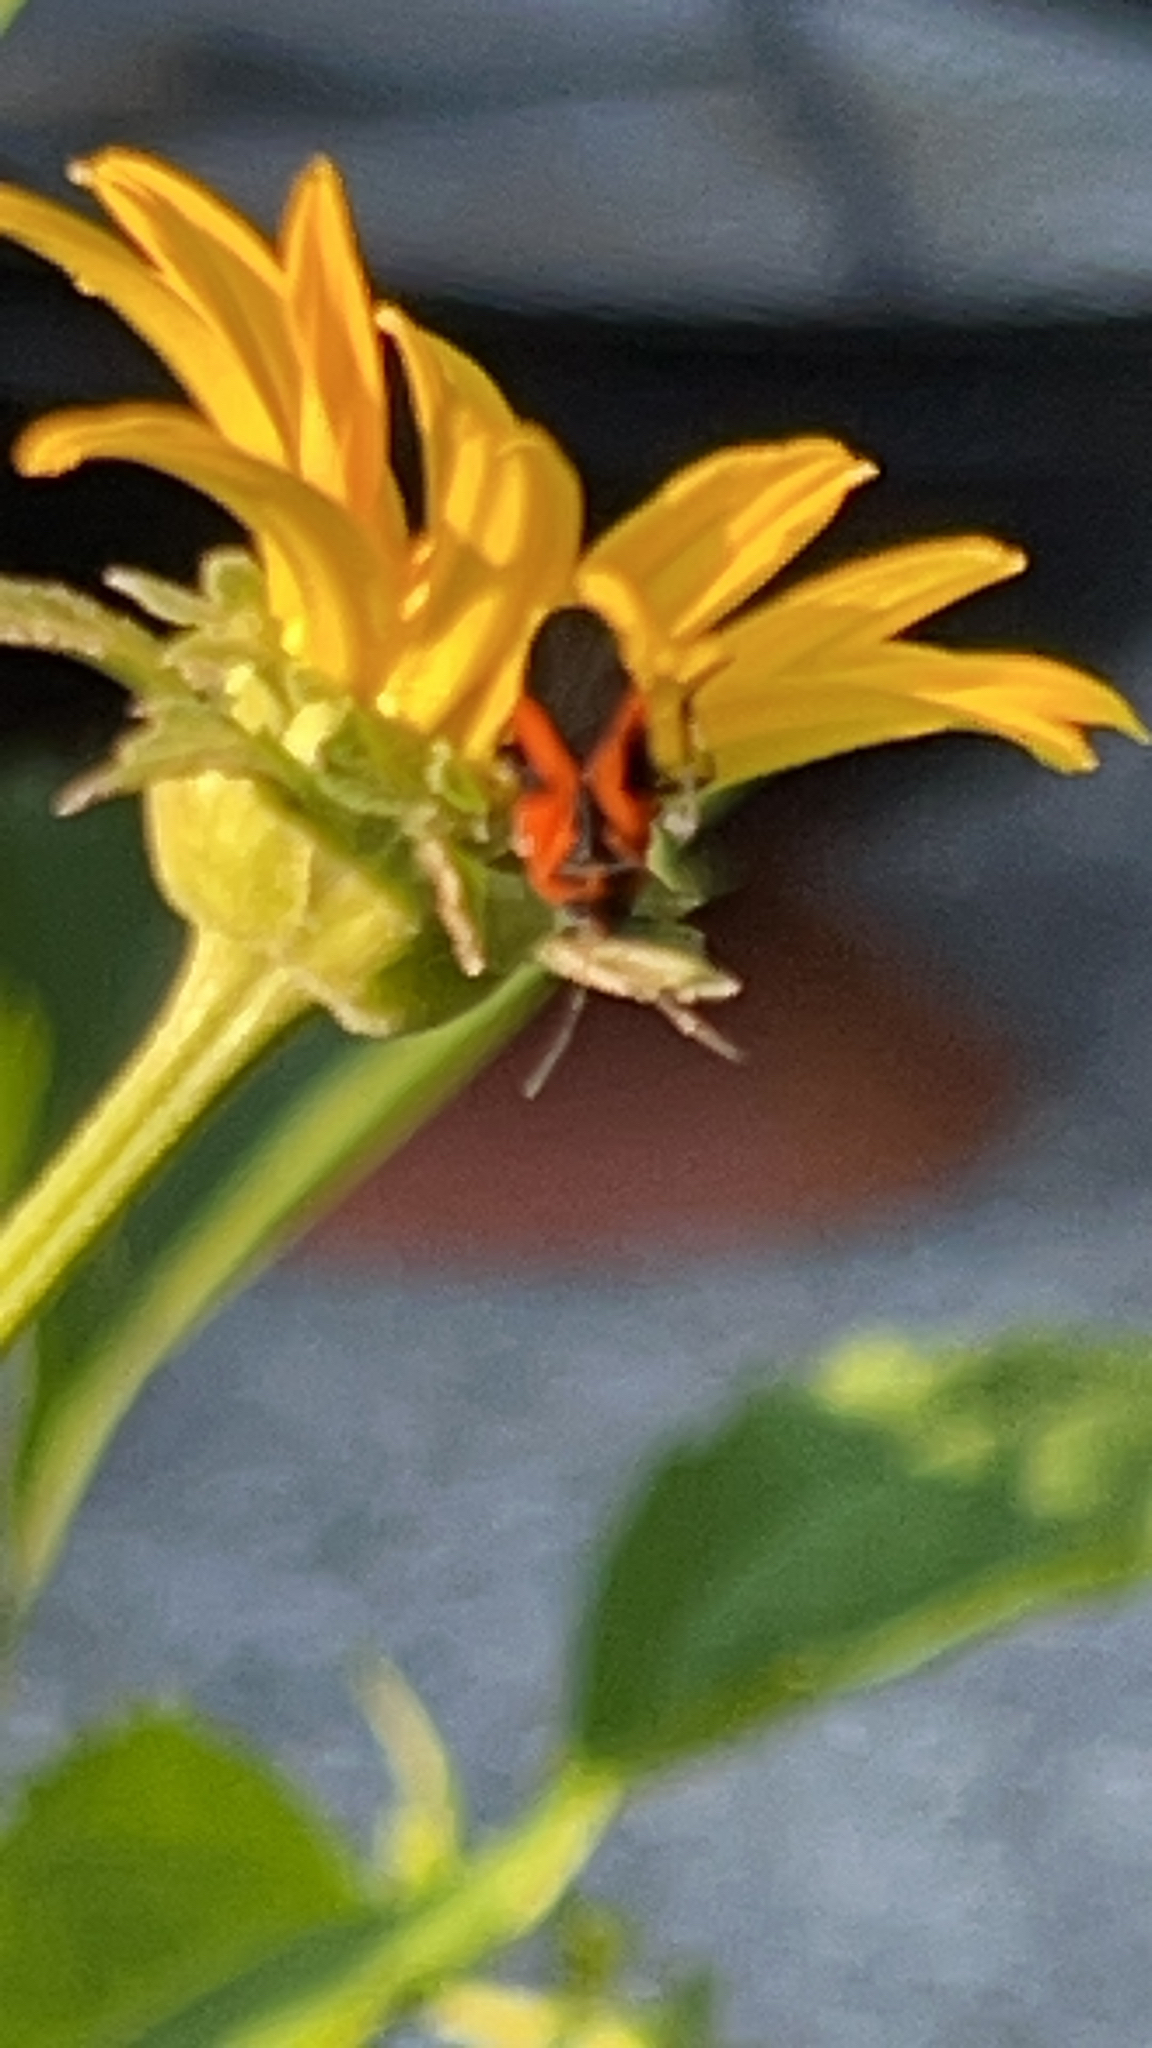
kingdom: Animalia
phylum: Arthropoda
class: Insecta
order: Hemiptera
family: Lygaeidae
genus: Lygaeus
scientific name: Lygaeus turcicus
